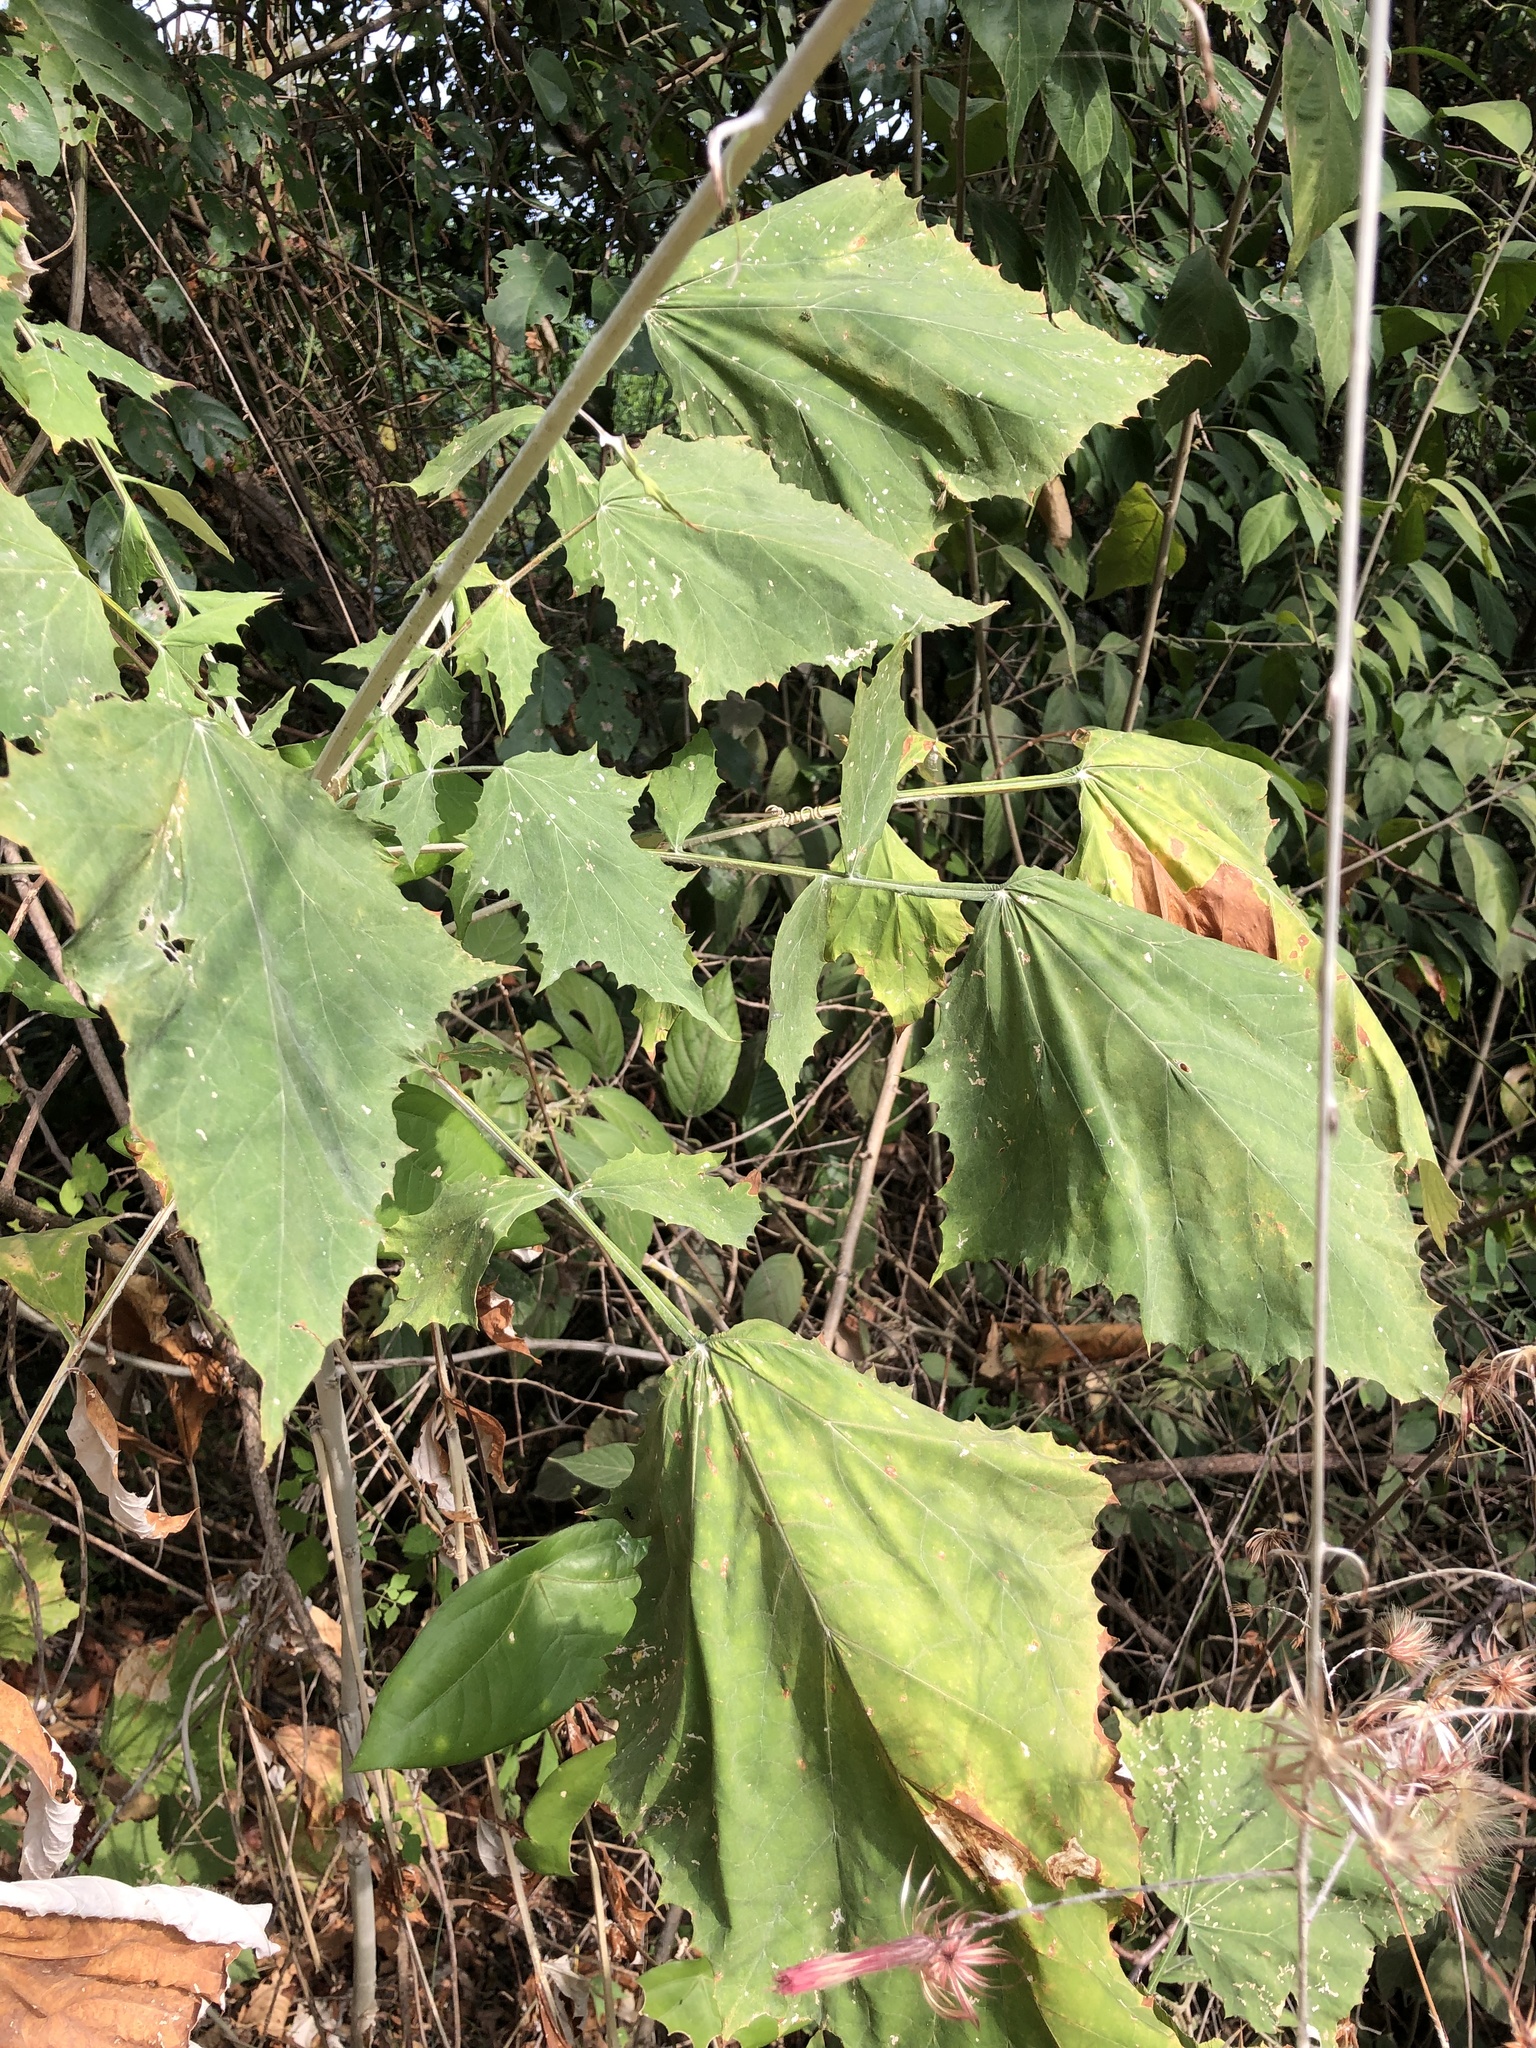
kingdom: Plantae
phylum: Tracheophyta
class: Magnoliopsida
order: Asterales
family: Asteraceae
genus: Onoseris
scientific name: Onoseris silvatica
